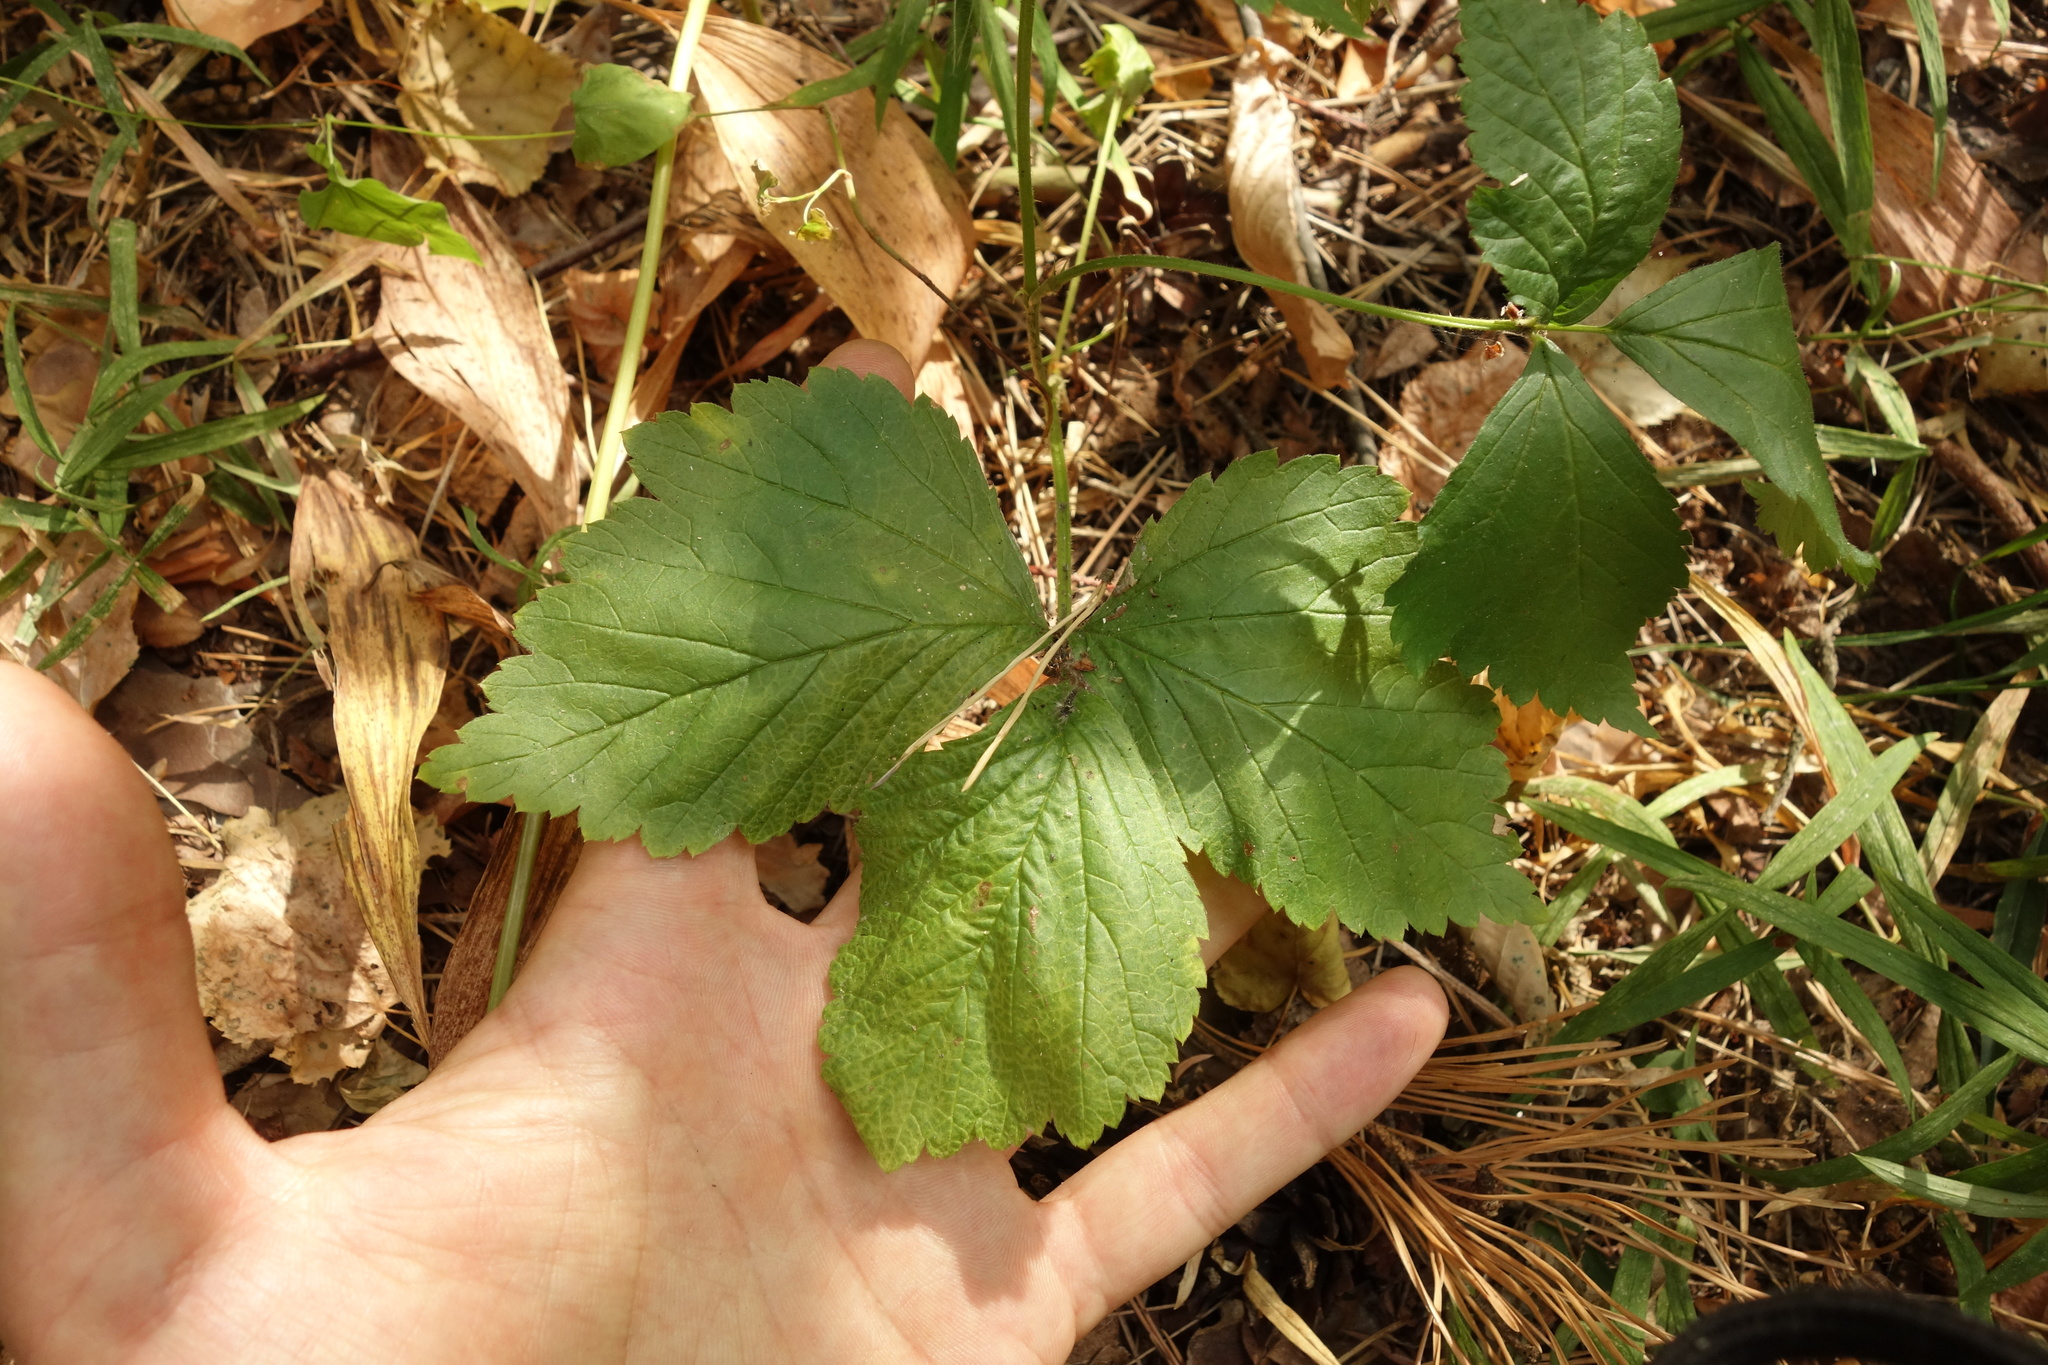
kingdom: Plantae
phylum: Tracheophyta
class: Magnoliopsida
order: Rosales
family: Rosaceae
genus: Rubus
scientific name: Rubus saxatilis
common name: Stone bramble
